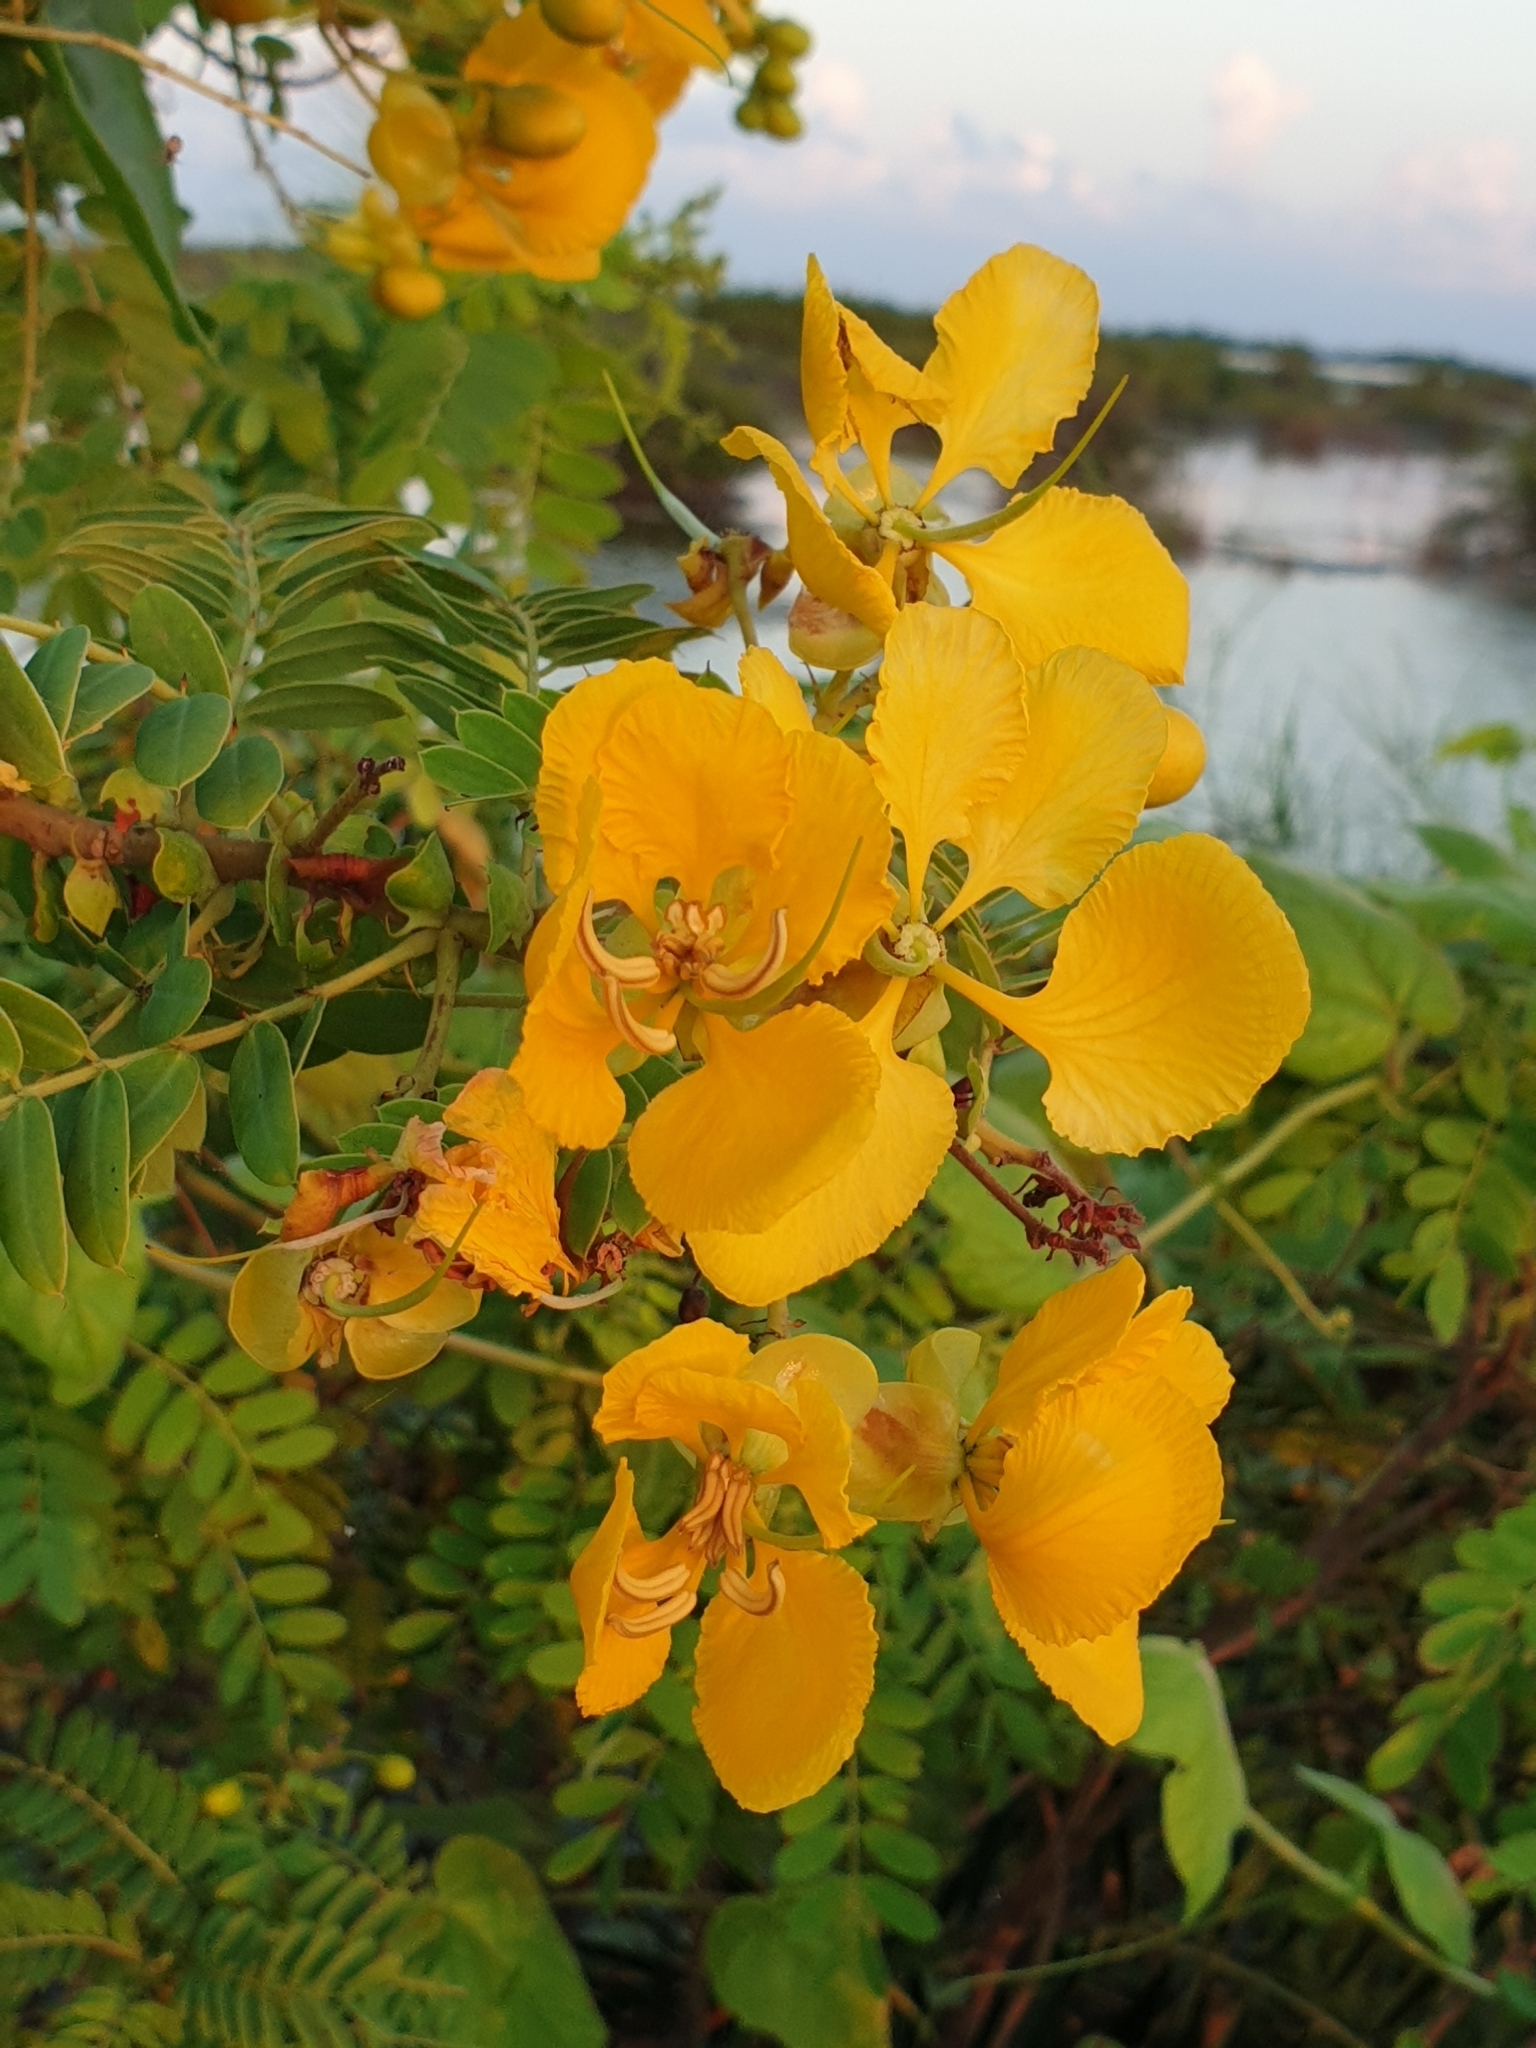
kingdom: Plantae
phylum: Tracheophyta
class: Magnoliopsida
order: Fabales
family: Fabaceae
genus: Senna
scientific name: Senna auriculata
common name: Tanner's cassia
